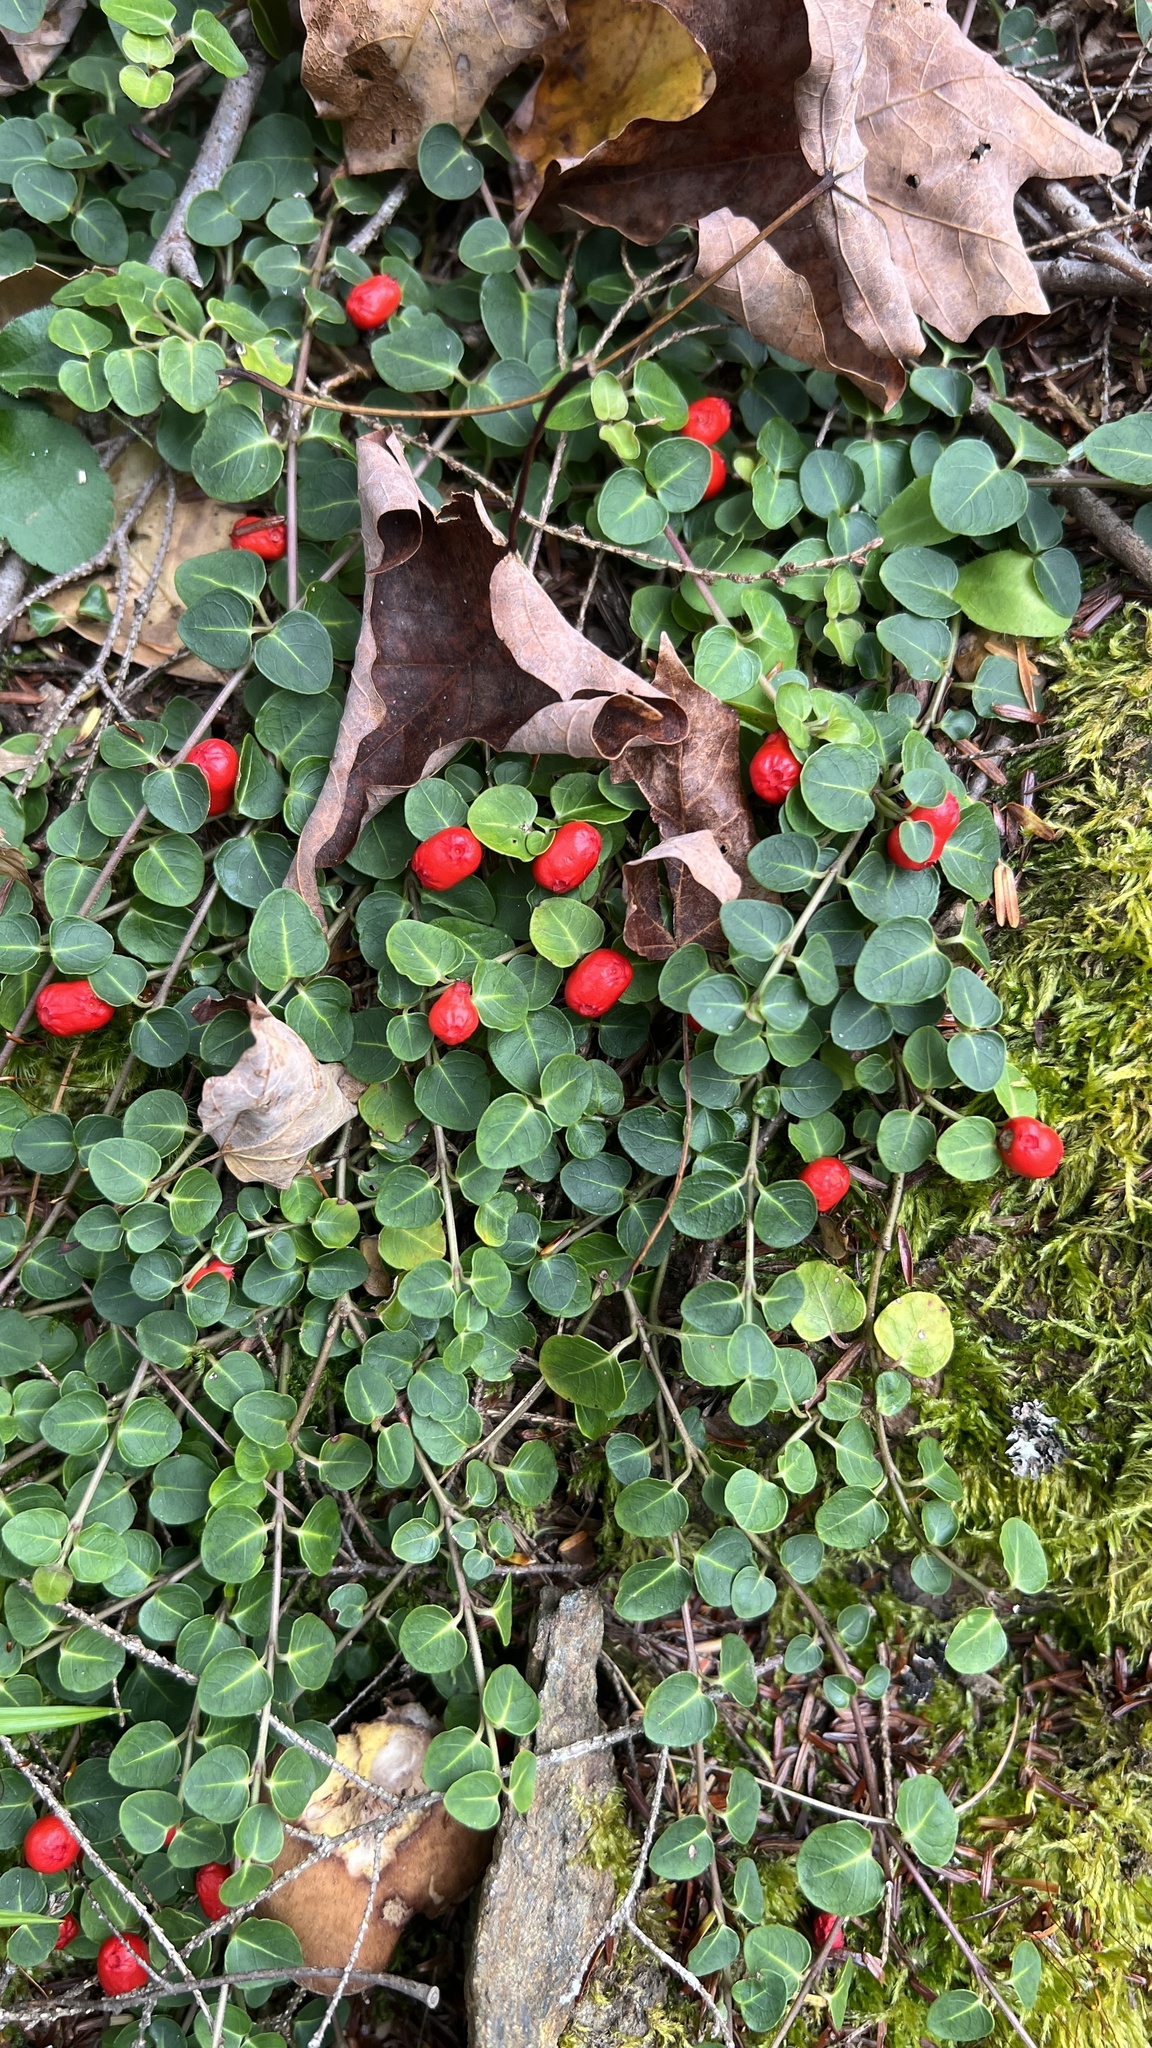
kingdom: Plantae
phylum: Tracheophyta
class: Magnoliopsida
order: Gentianales
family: Rubiaceae
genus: Mitchella
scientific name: Mitchella repens
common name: Partridge-berry
